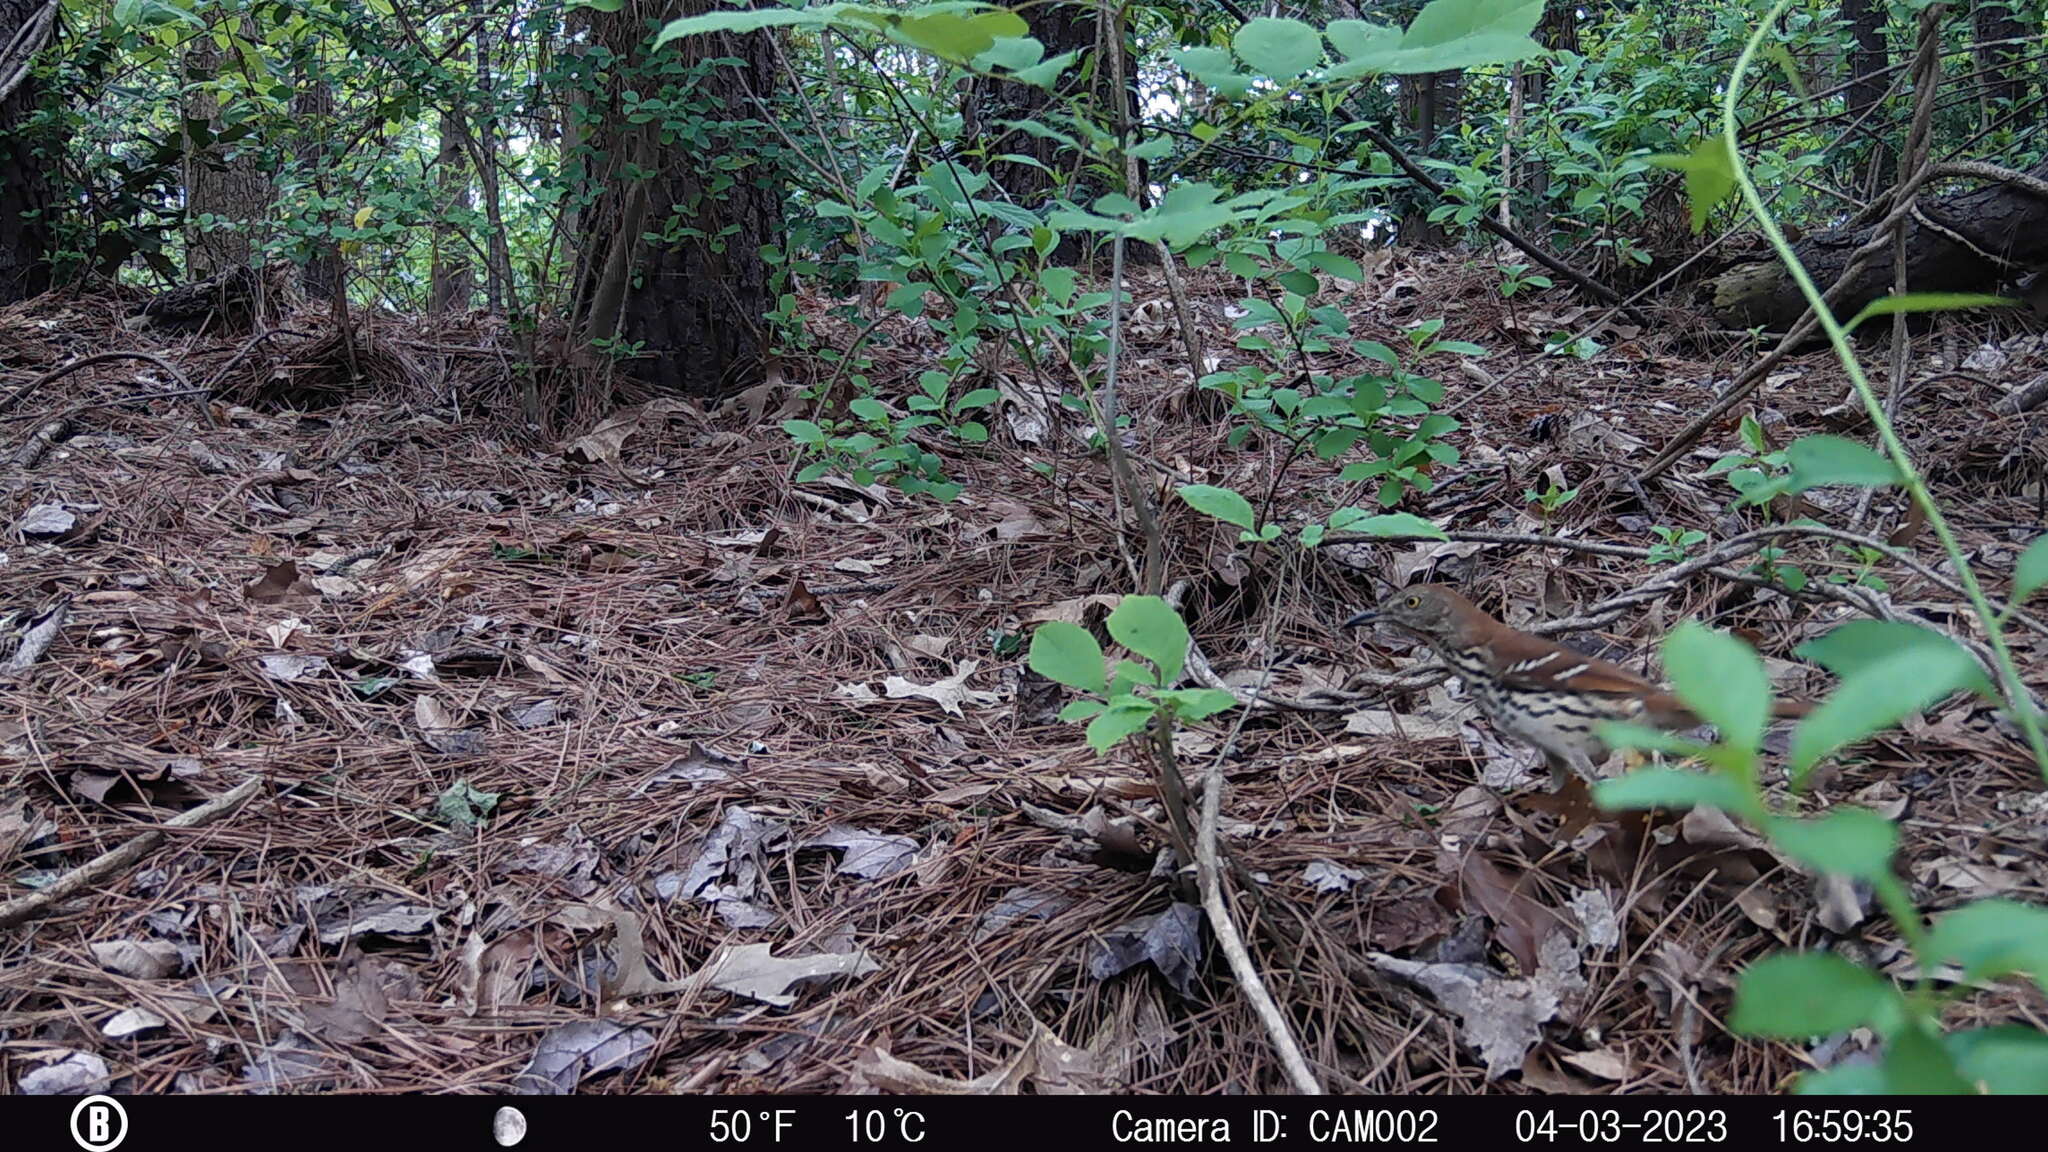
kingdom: Animalia
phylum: Chordata
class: Aves
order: Passeriformes
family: Mimidae
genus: Toxostoma
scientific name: Toxostoma rufum
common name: Brown thrasher
